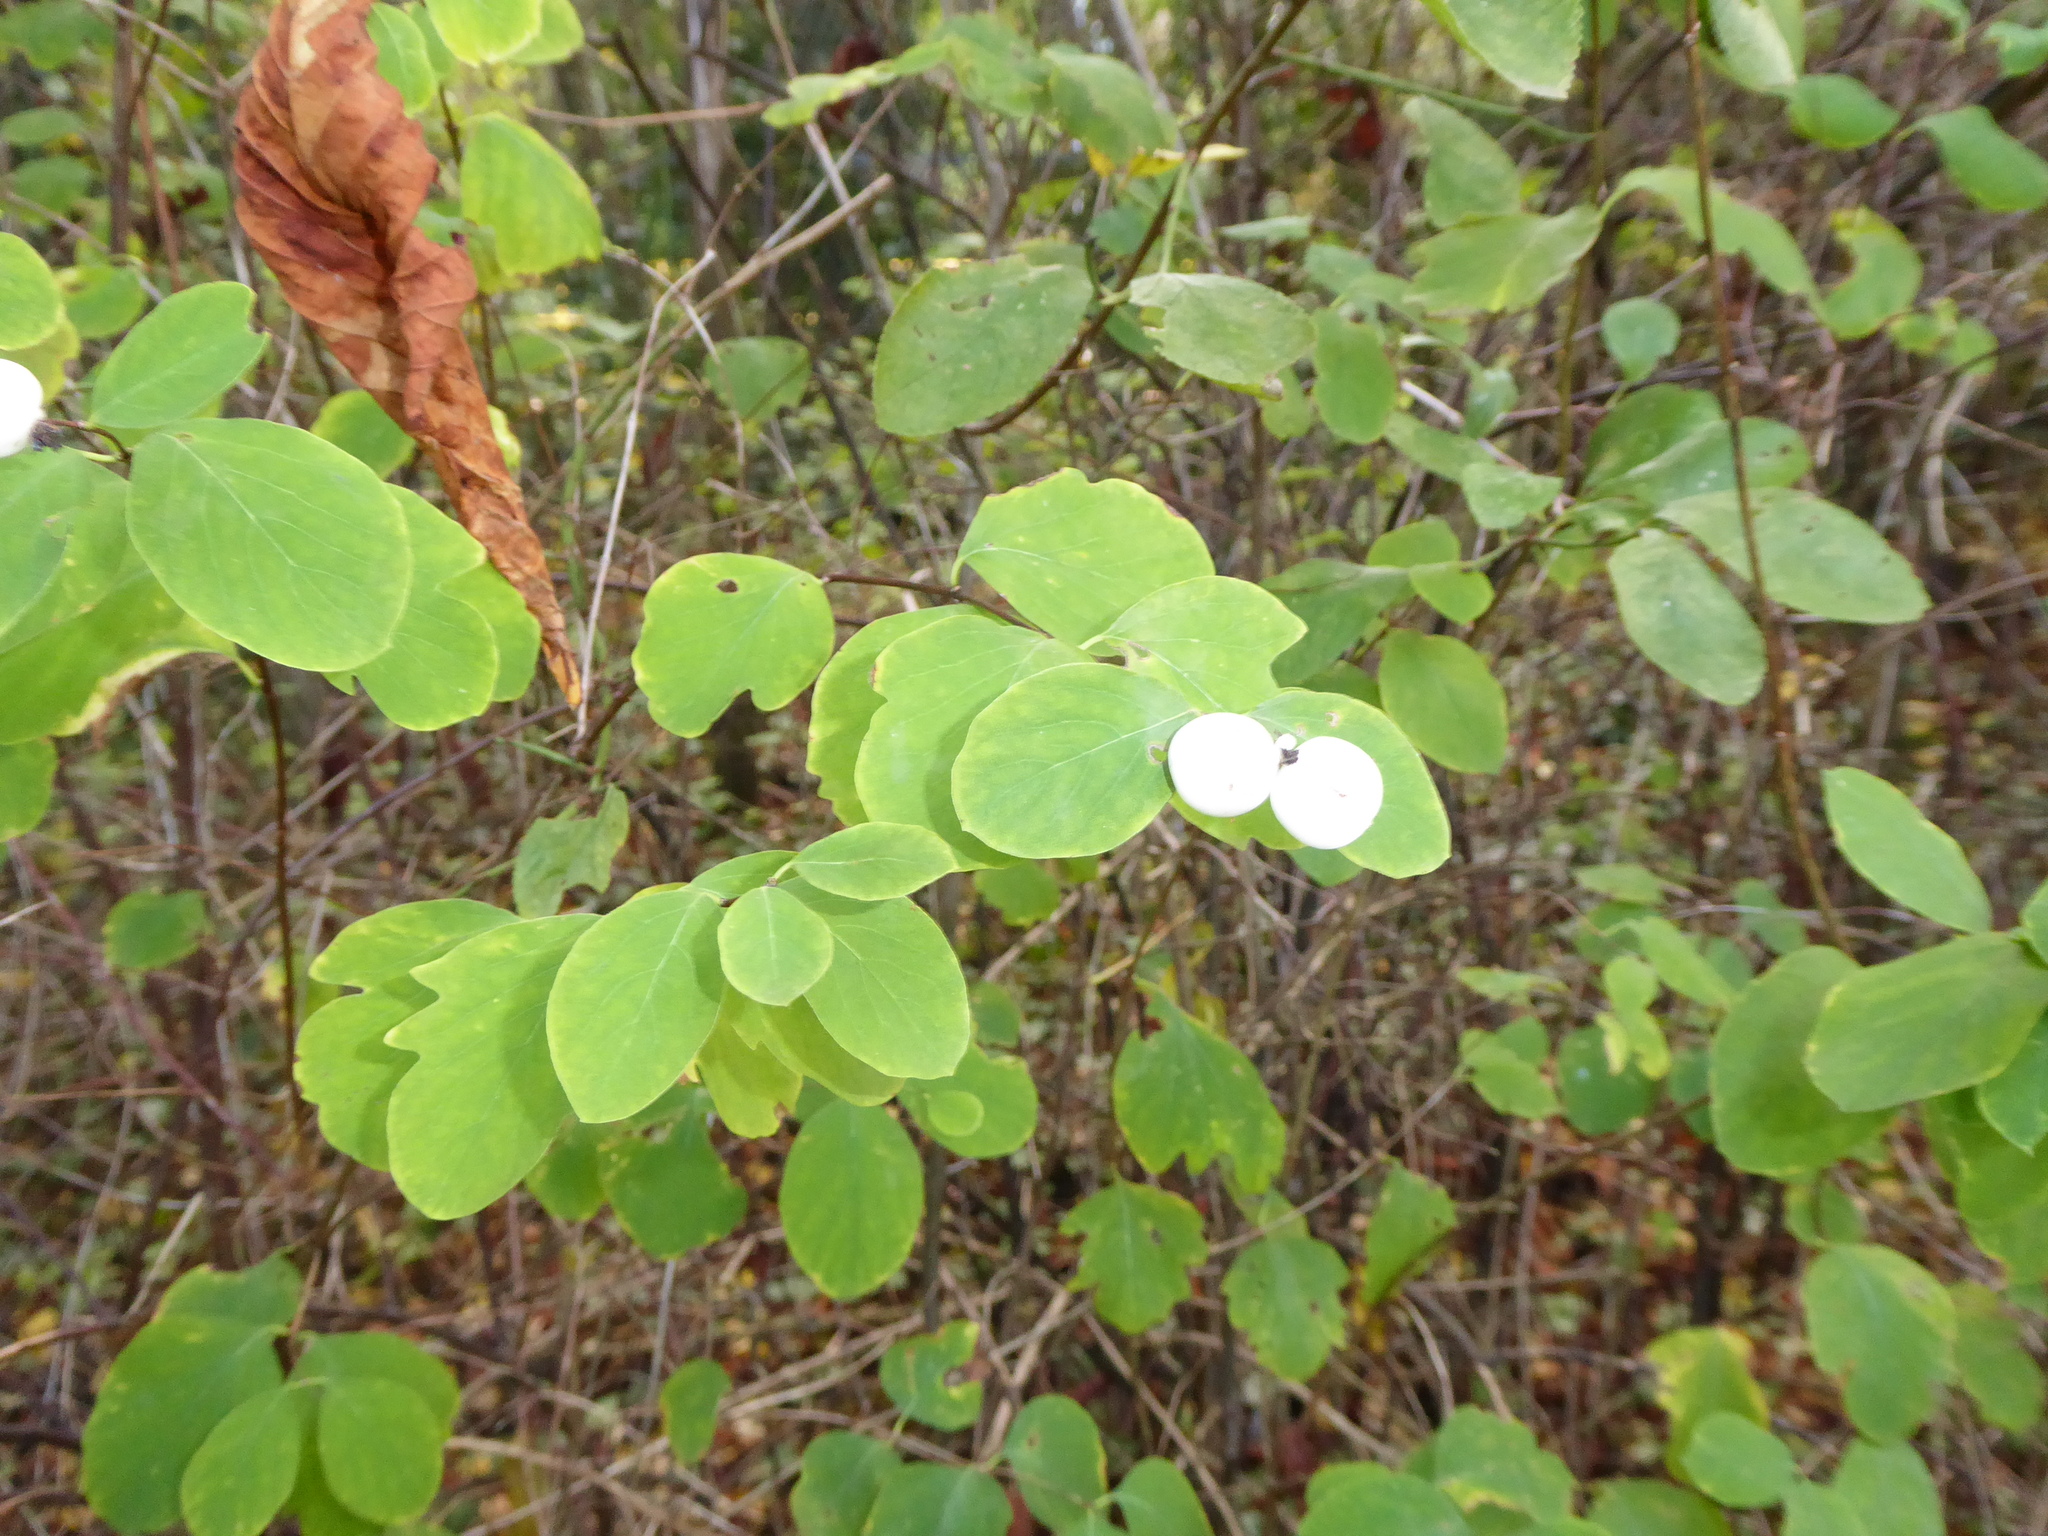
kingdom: Plantae
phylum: Tracheophyta
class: Magnoliopsida
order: Dipsacales
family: Caprifoliaceae
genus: Symphoricarpos
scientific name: Symphoricarpos albus
